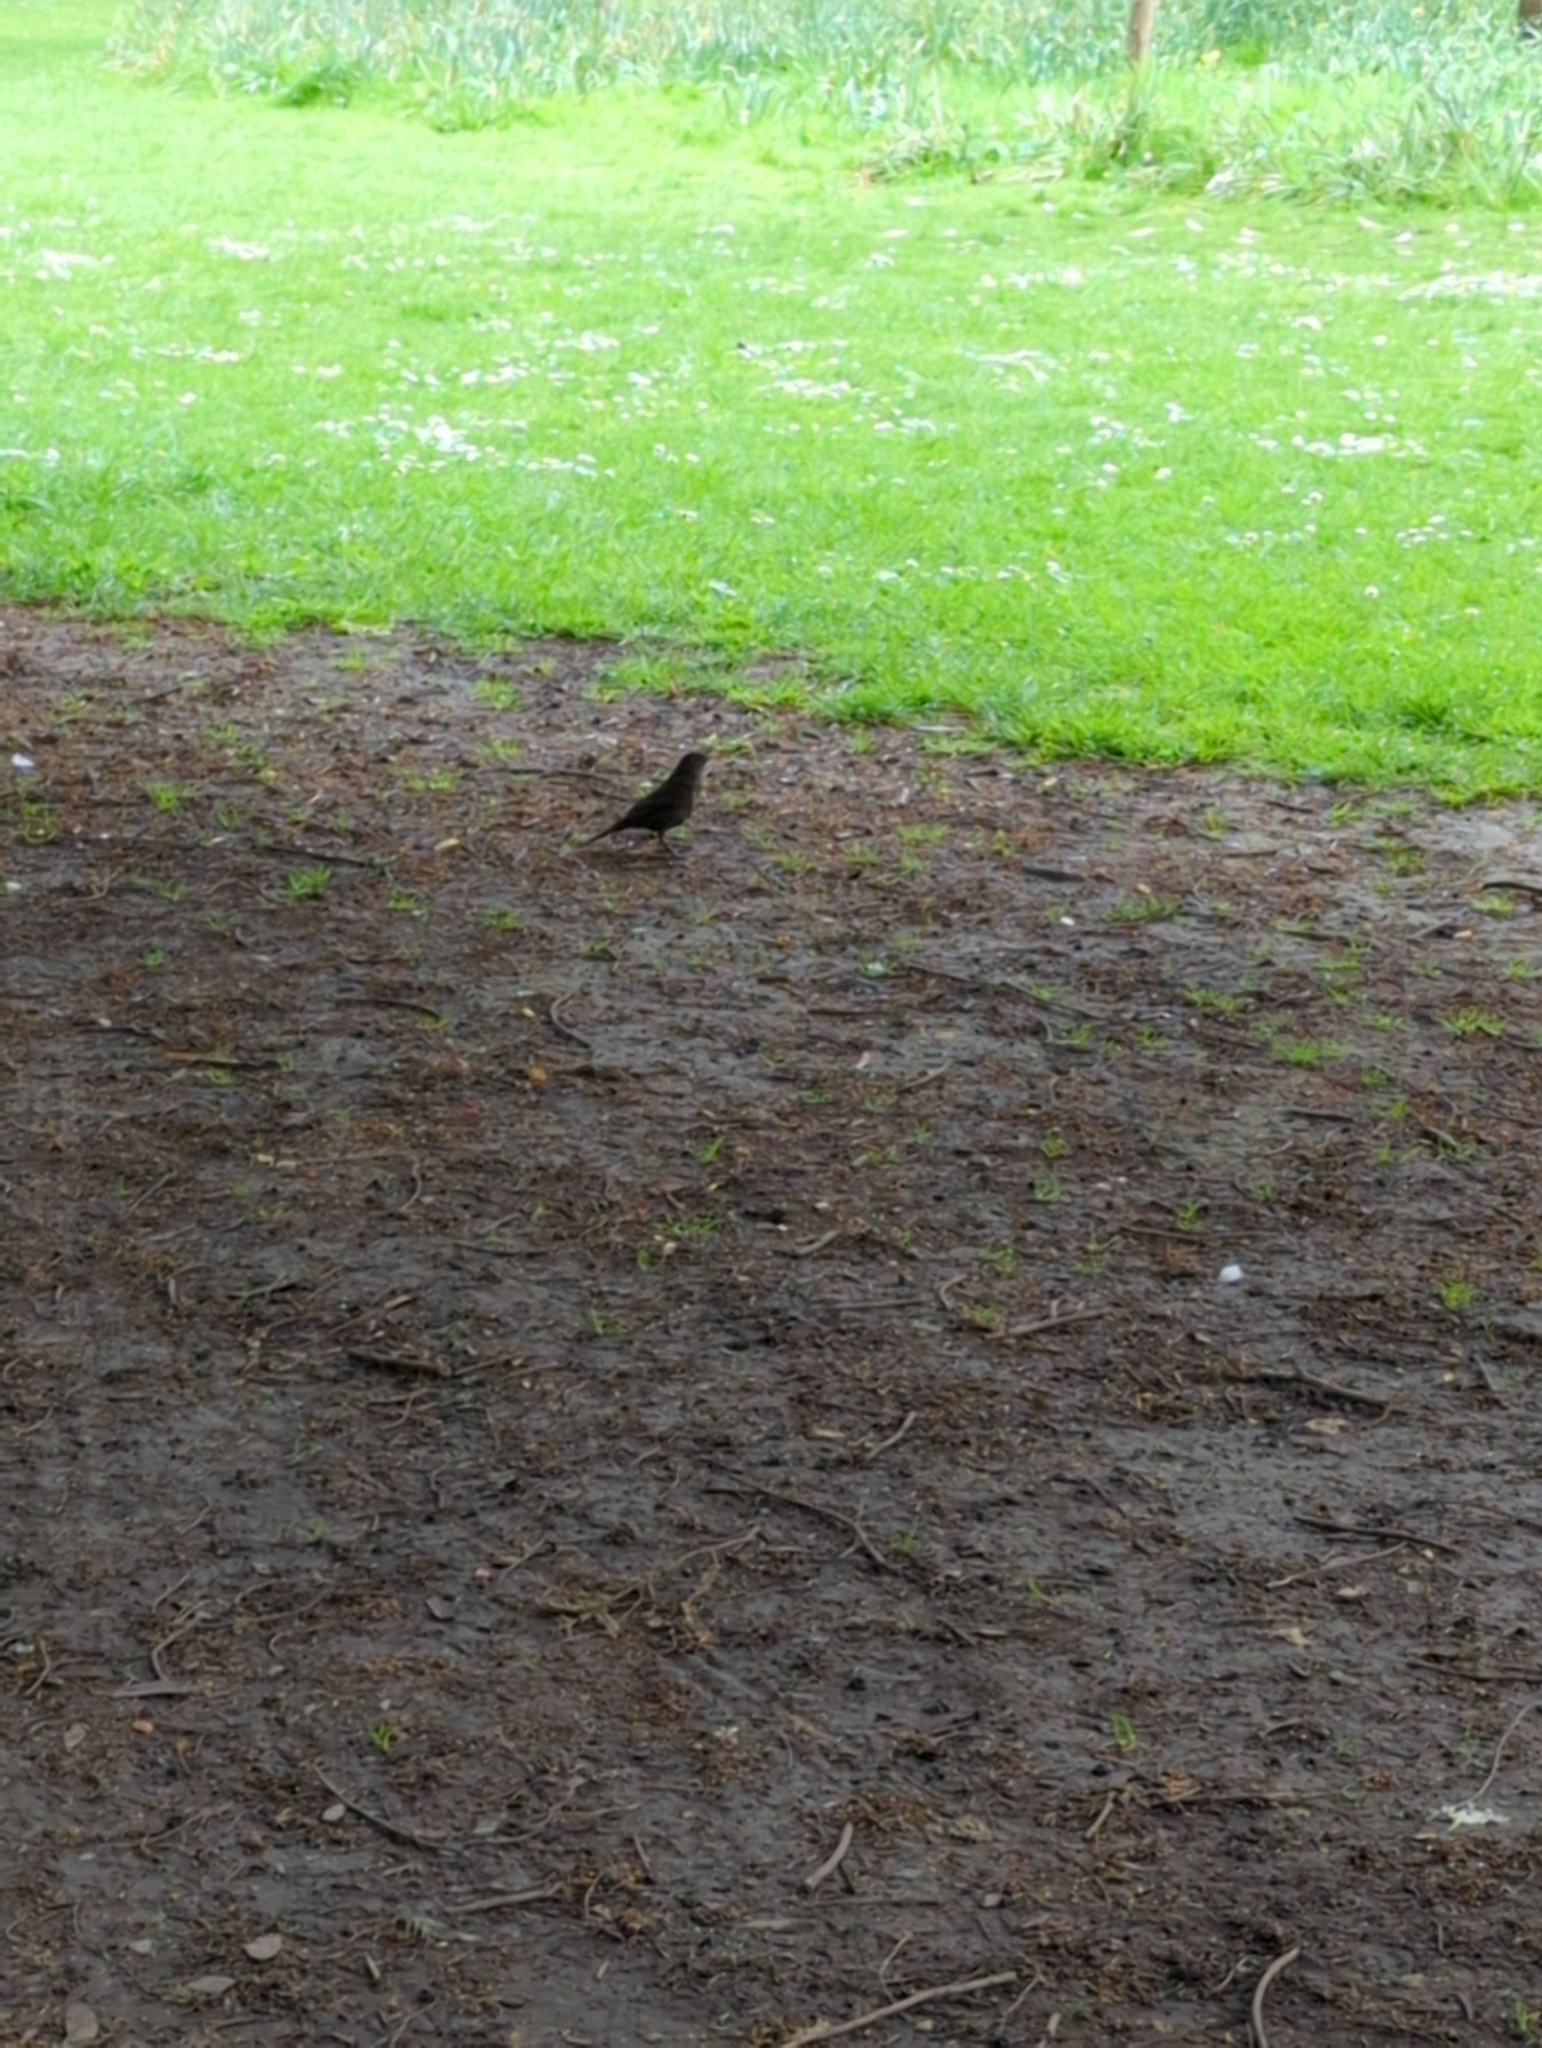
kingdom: Animalia
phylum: Chordata
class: Aves
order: Passeriformes
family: Turdidae
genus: Turdus
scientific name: Turdus merula
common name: Common blackbird
